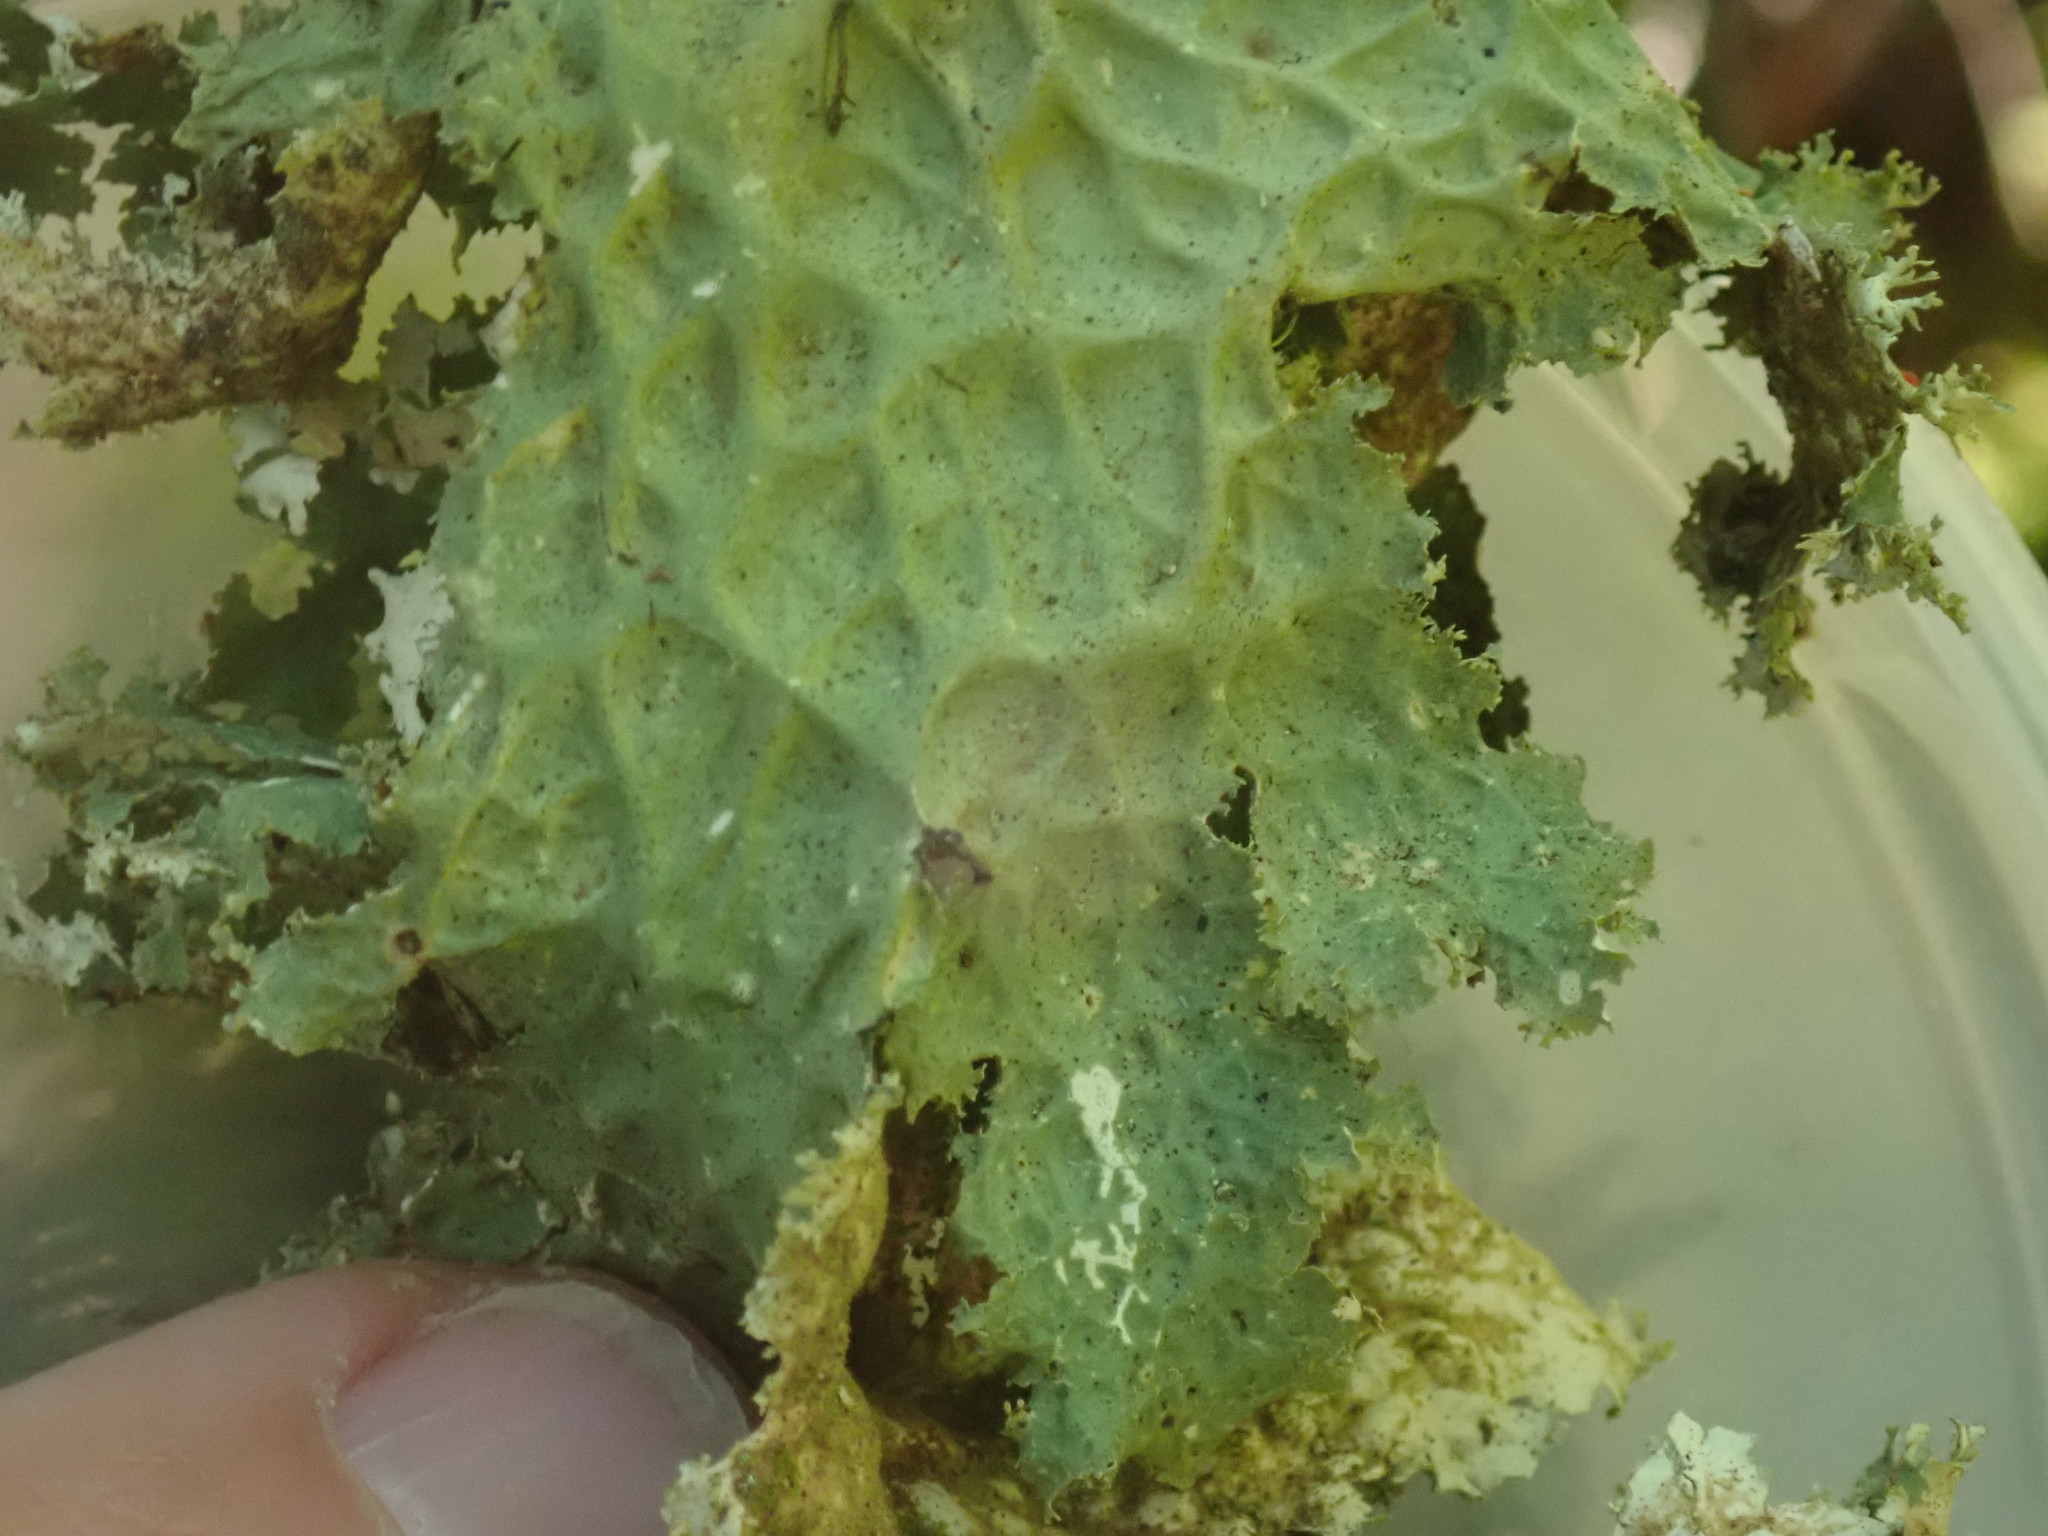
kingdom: Fungi
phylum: Ascomycota
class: Lecanoromycetes
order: Peltigerales
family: Lobariaceae
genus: Lobaria
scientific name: Lobaria oregana
